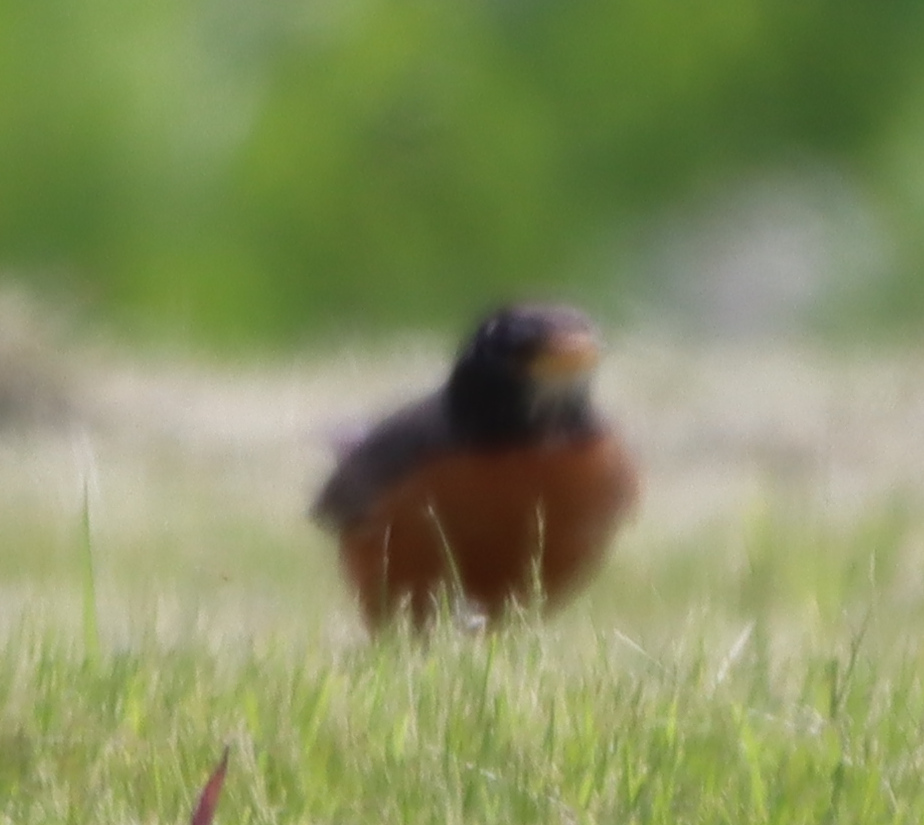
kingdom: Animalia
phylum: Chordata
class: Aves
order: Passeriformes
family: Turdidae
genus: Turdus
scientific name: Turdus migratorius
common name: American robin
